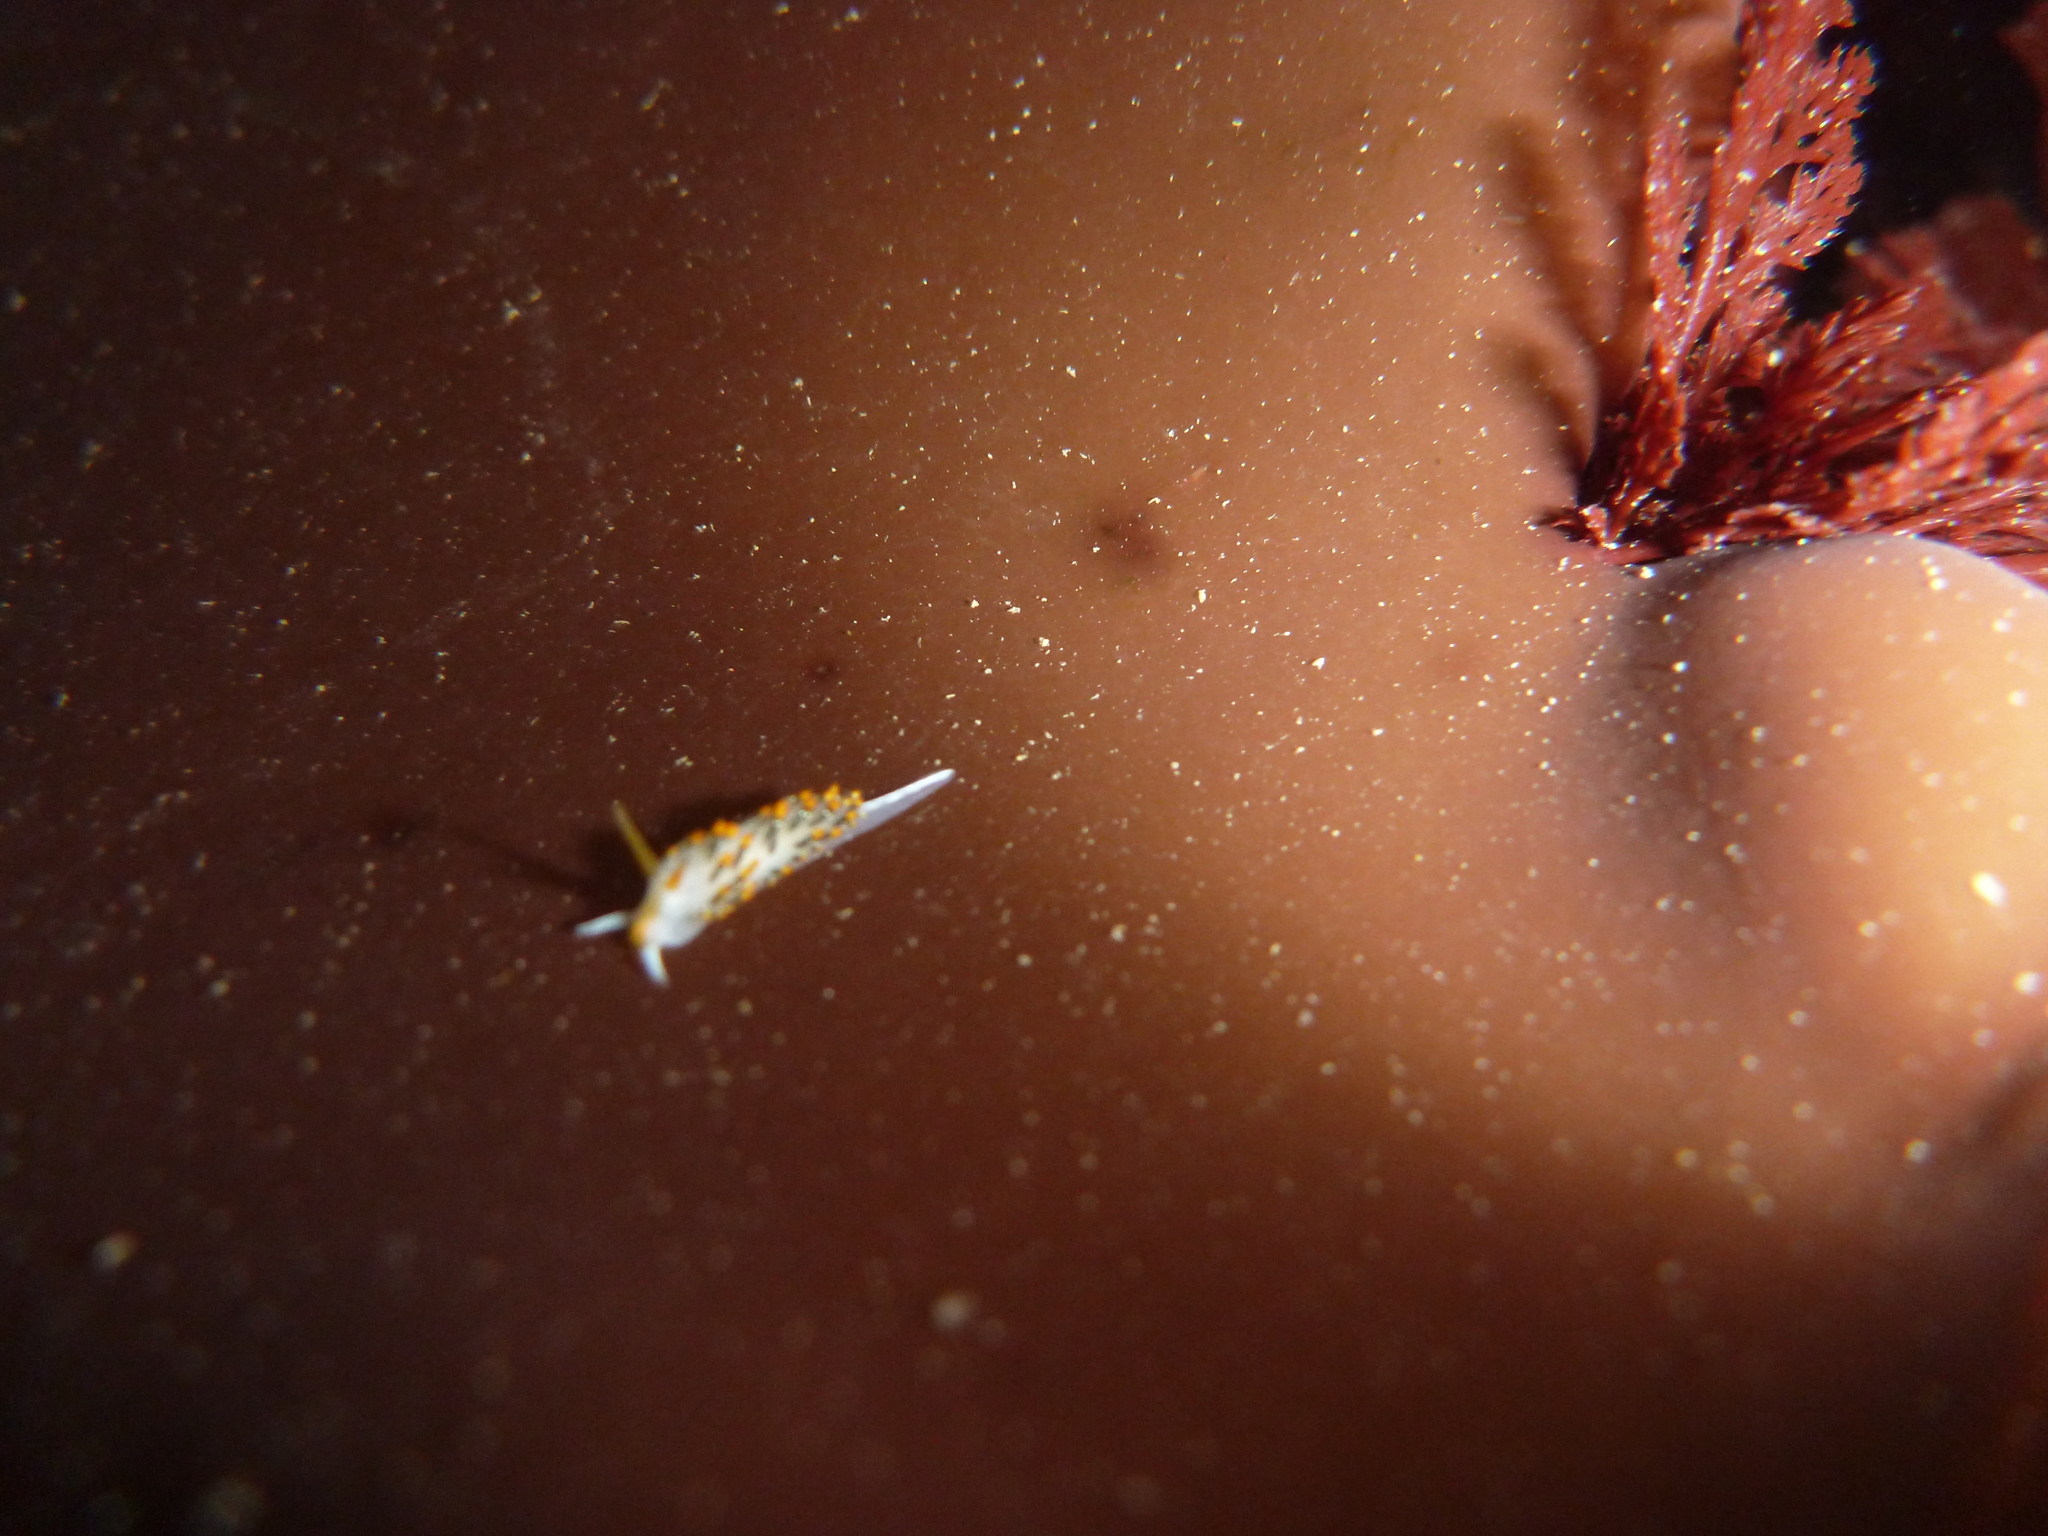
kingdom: Animalia
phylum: Mollusca
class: Gastropoda
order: Nudibranchia
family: Trinchesiidae
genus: Diaphoreolis
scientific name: Diaphoreolis lagunae
